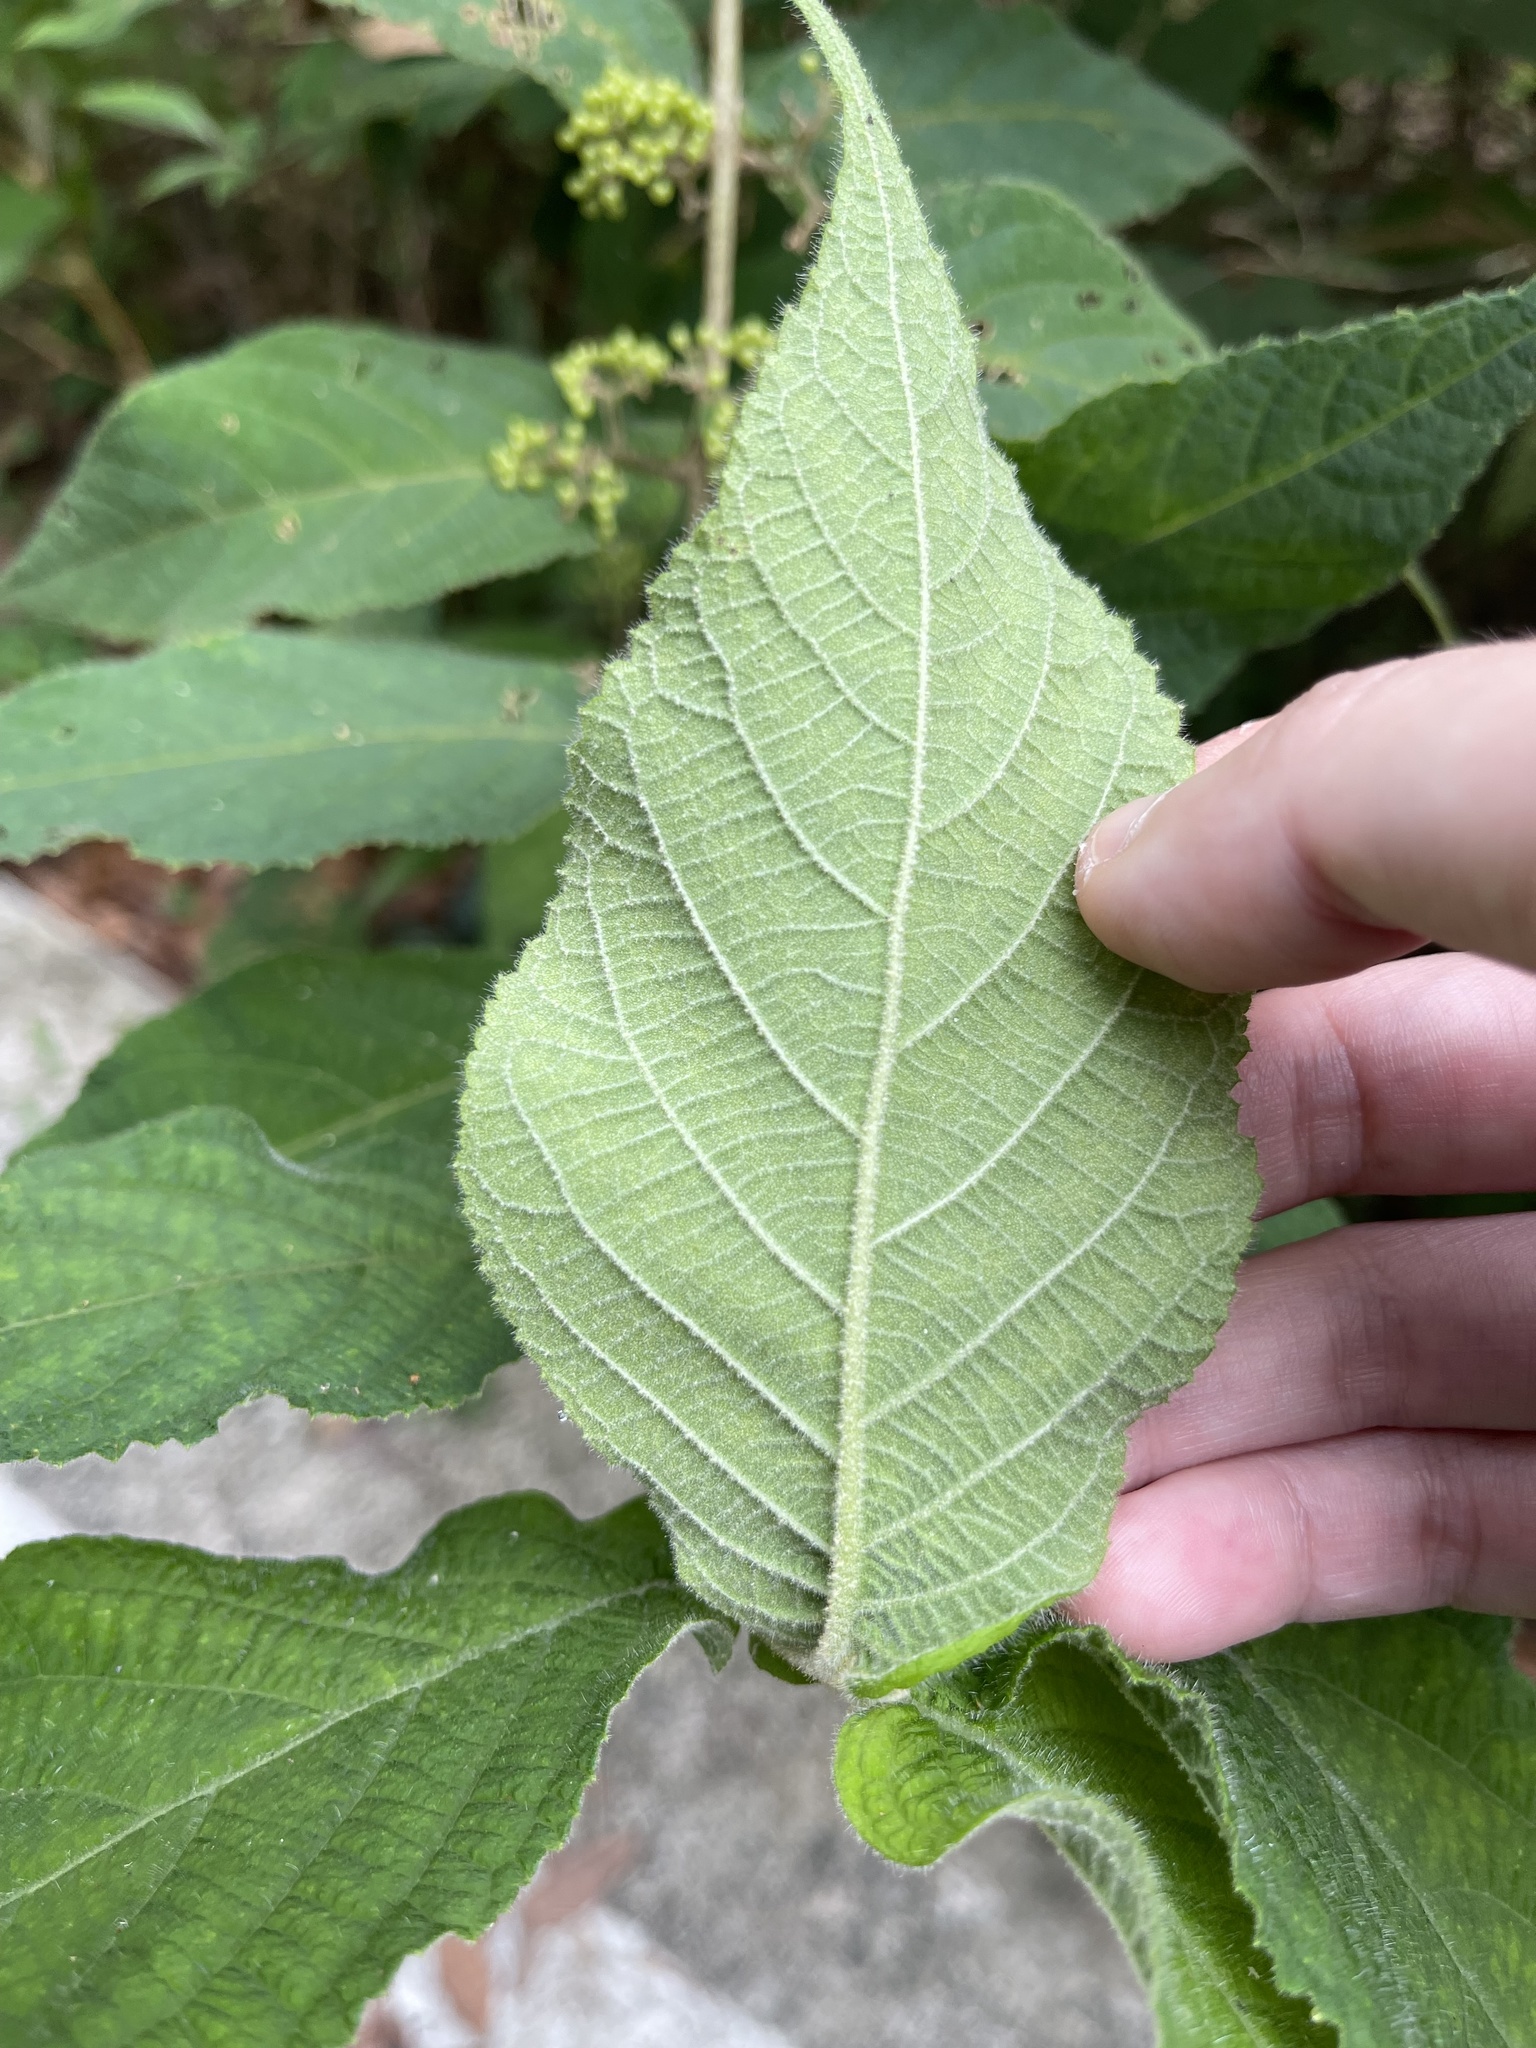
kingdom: Plantae
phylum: Tracheophyta
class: Magnoliopsida
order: Lamiales
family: Lamiaceae
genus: Callicarpa
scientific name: Callicarpa rubella
